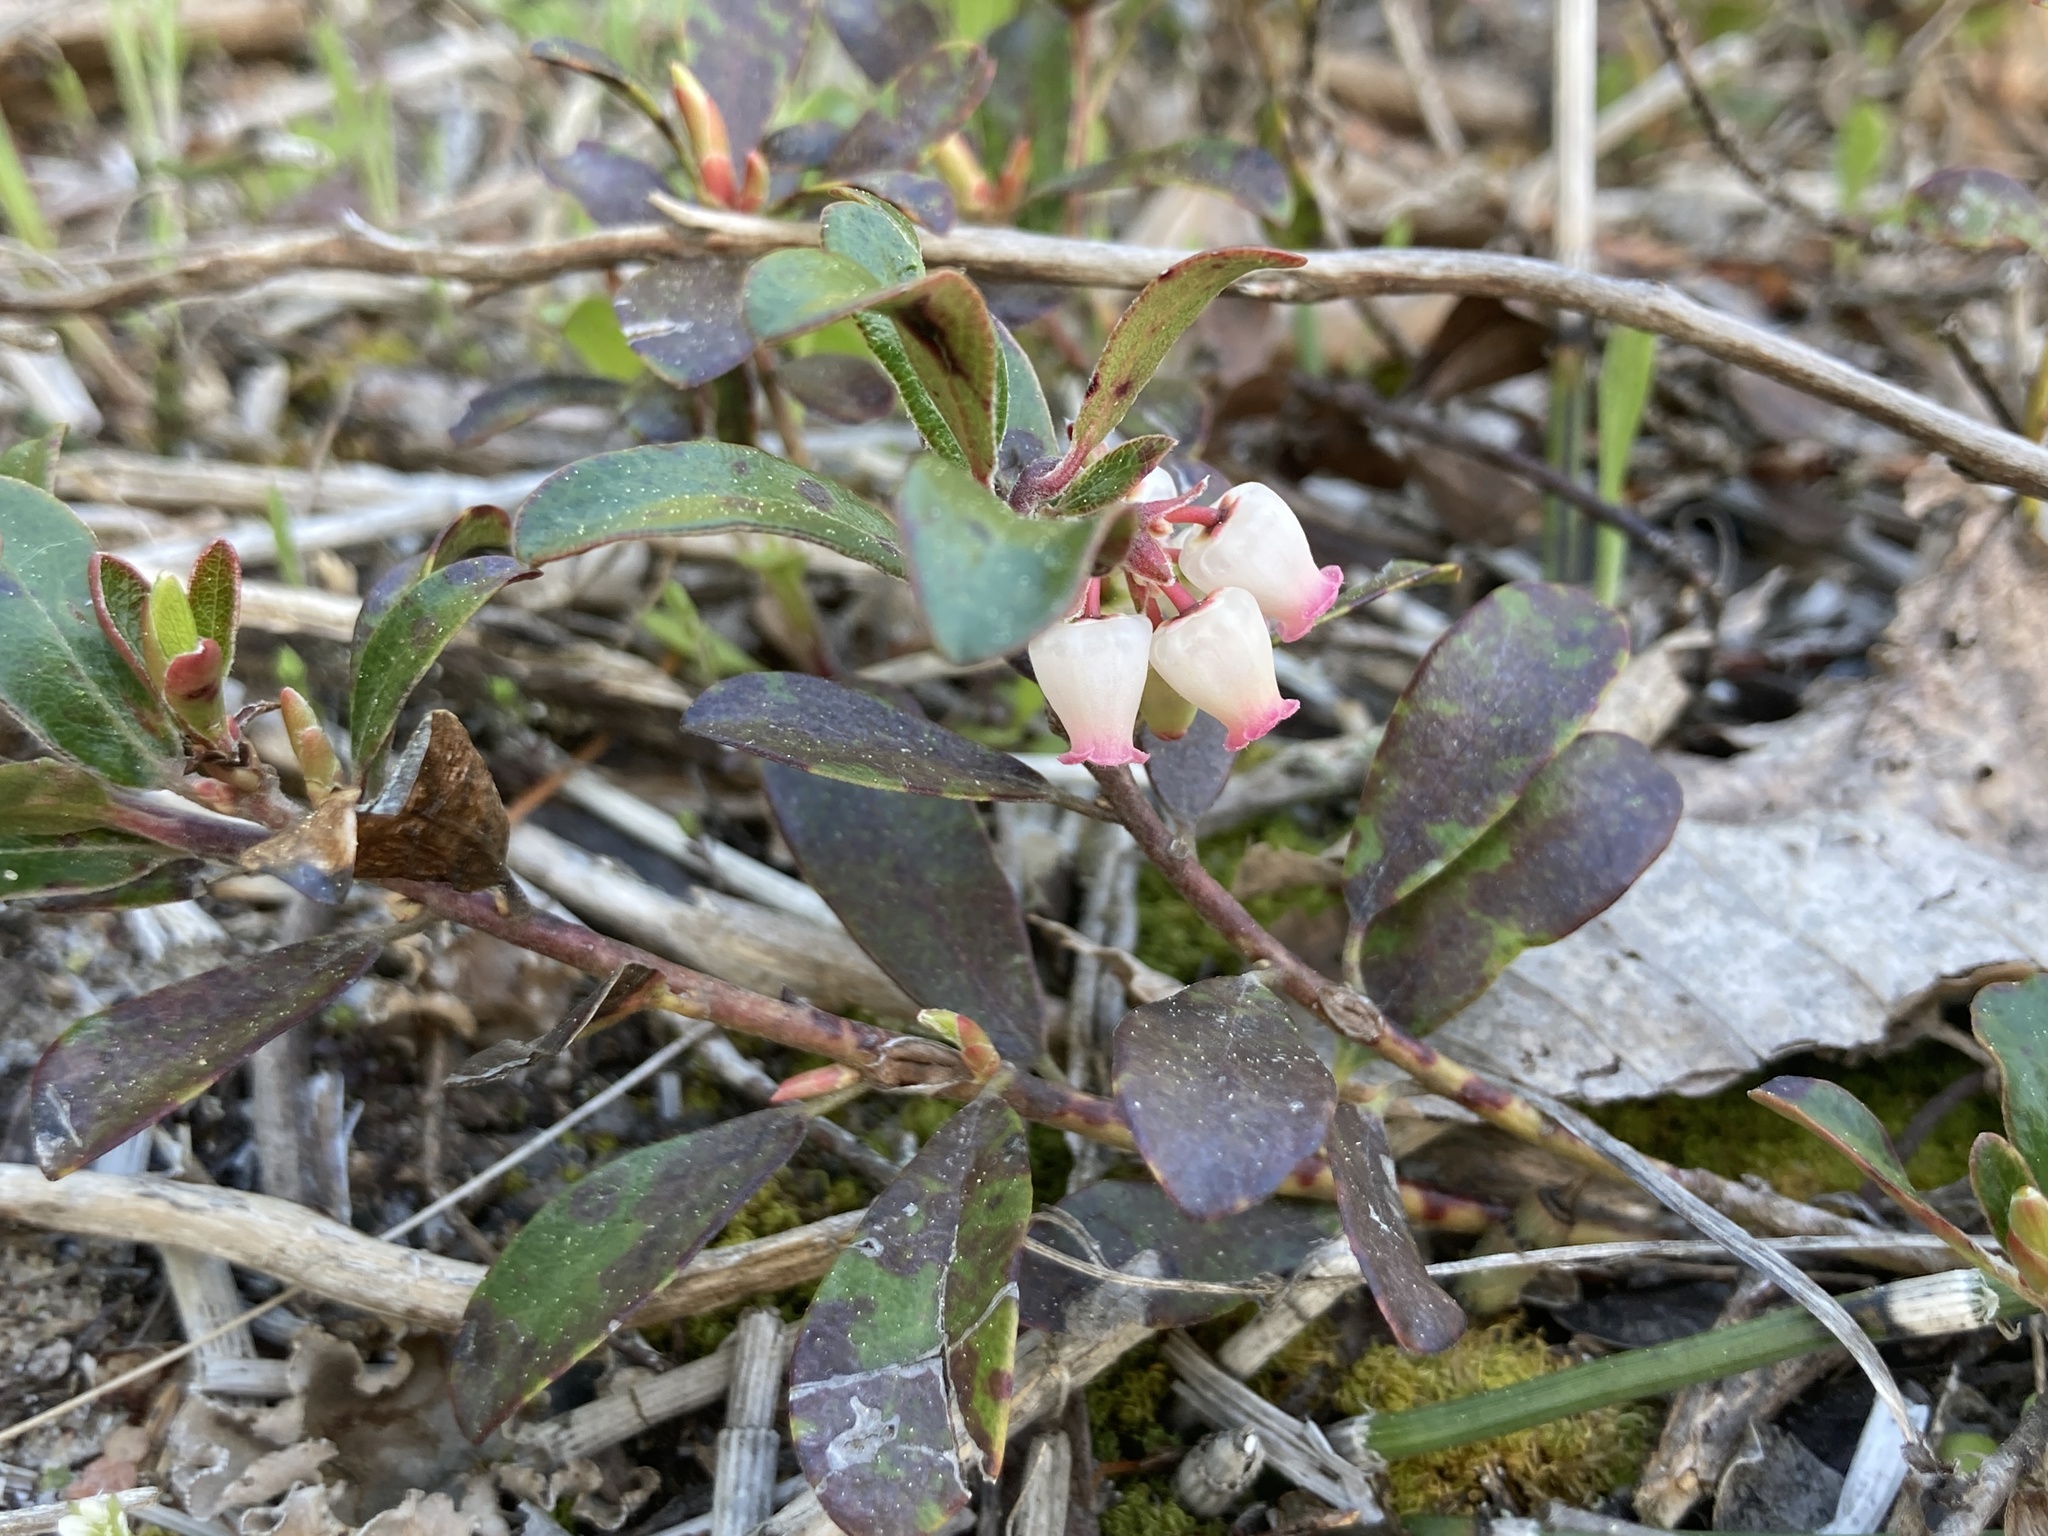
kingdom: Plantae
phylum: Tracheophyta
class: Magnoliopsida
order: Ericales
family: Ericaceae
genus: Arctostaphylos
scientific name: Arctostaphylos uva-ursi
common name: Bearberry
